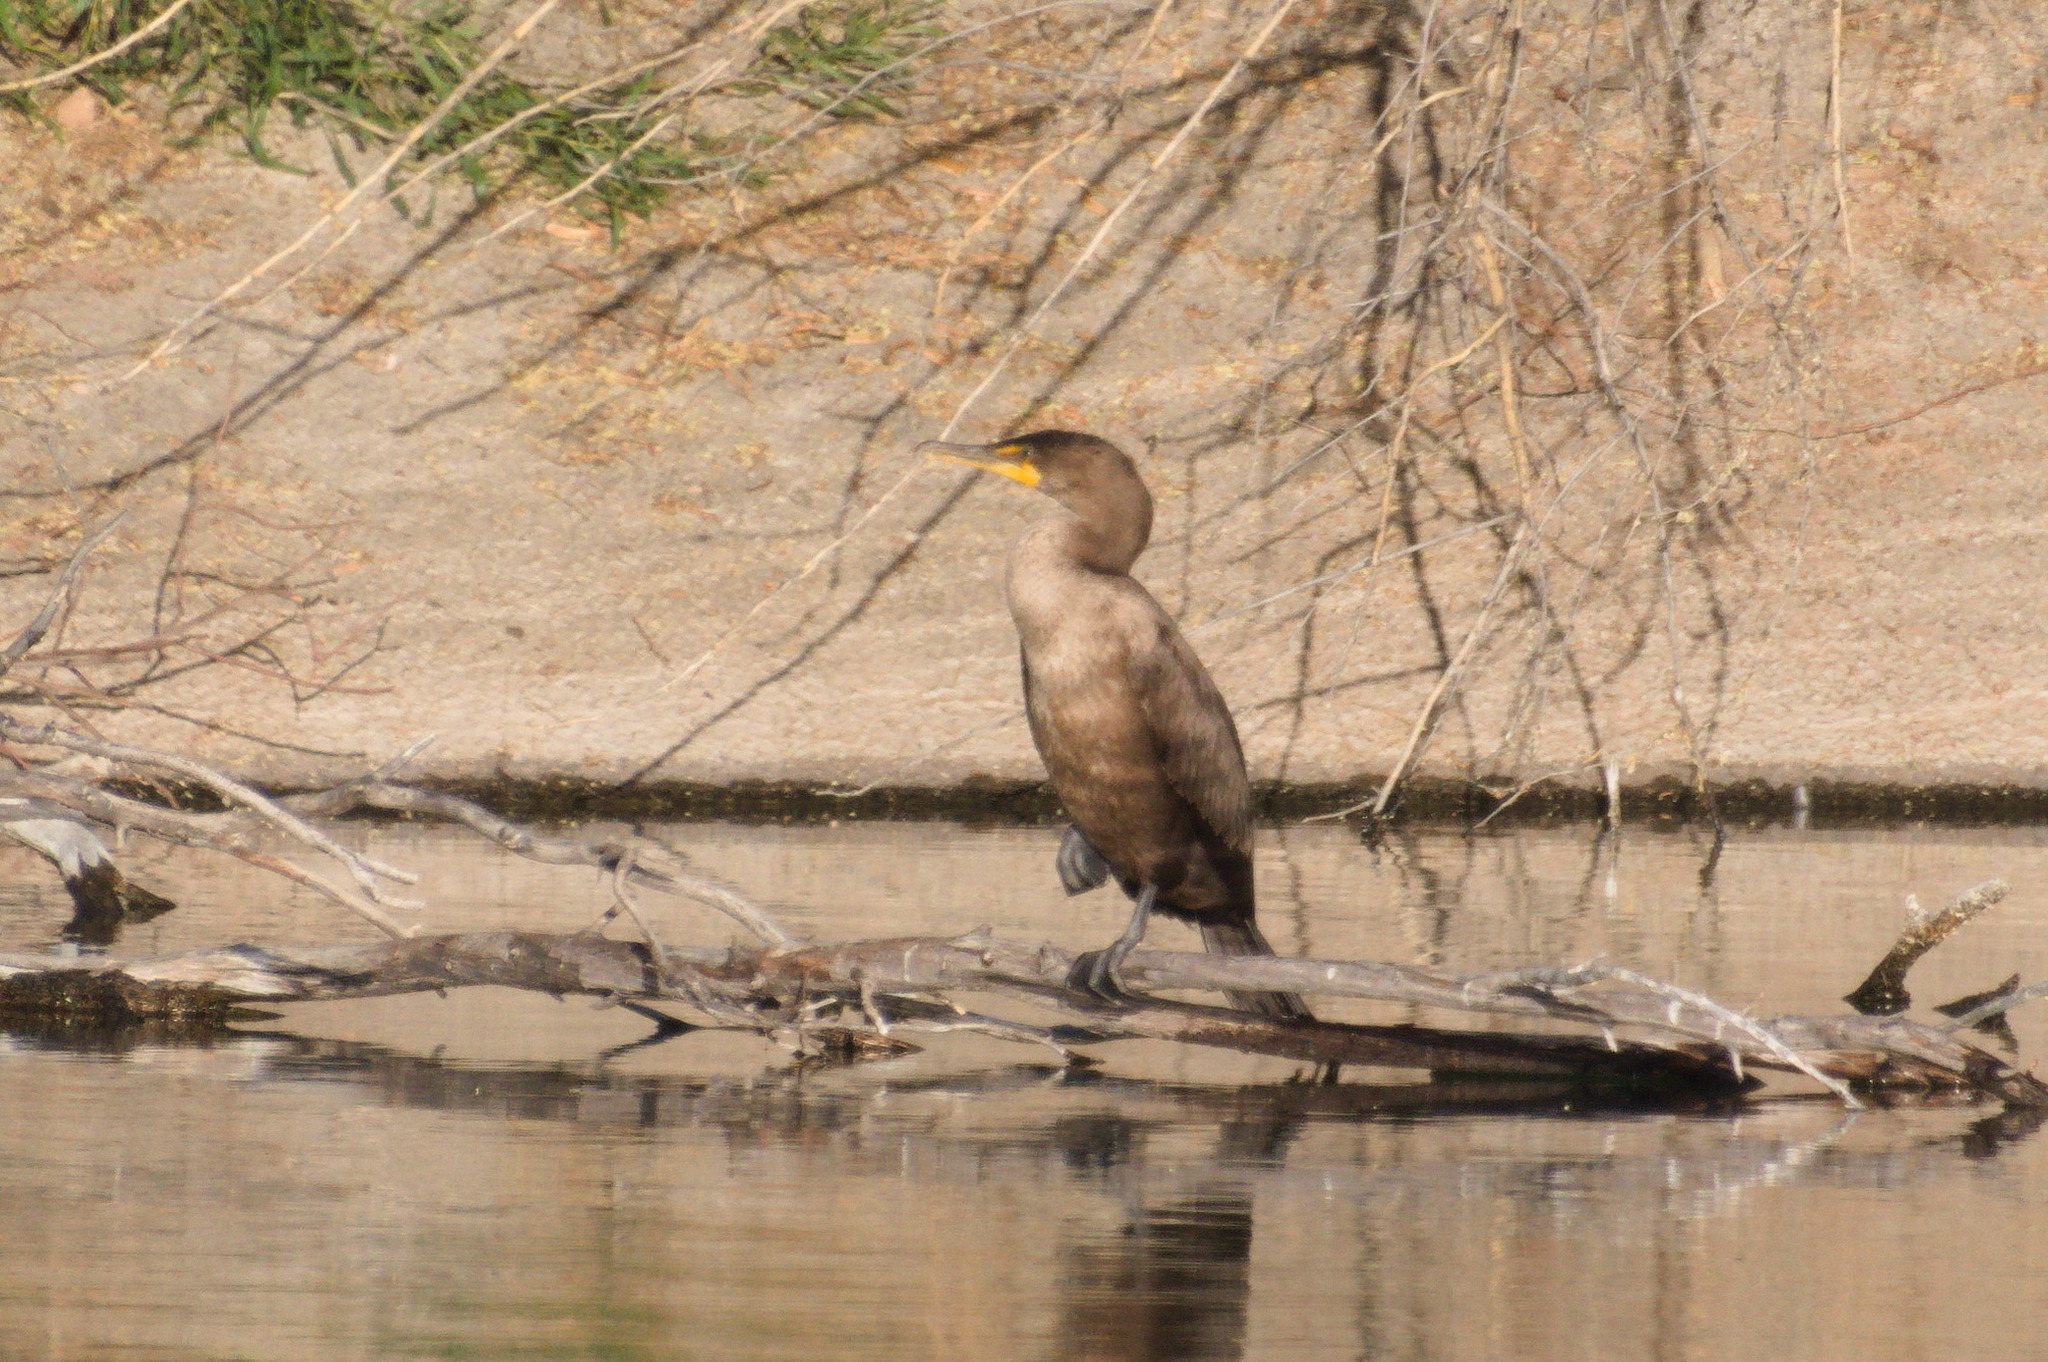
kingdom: Animalia
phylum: Chordata
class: Aves
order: Suliformes
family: Phalacrocoracidae
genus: Phalacrocorax
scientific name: Phalacrocorax auritus
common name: Double-crested cormorant
